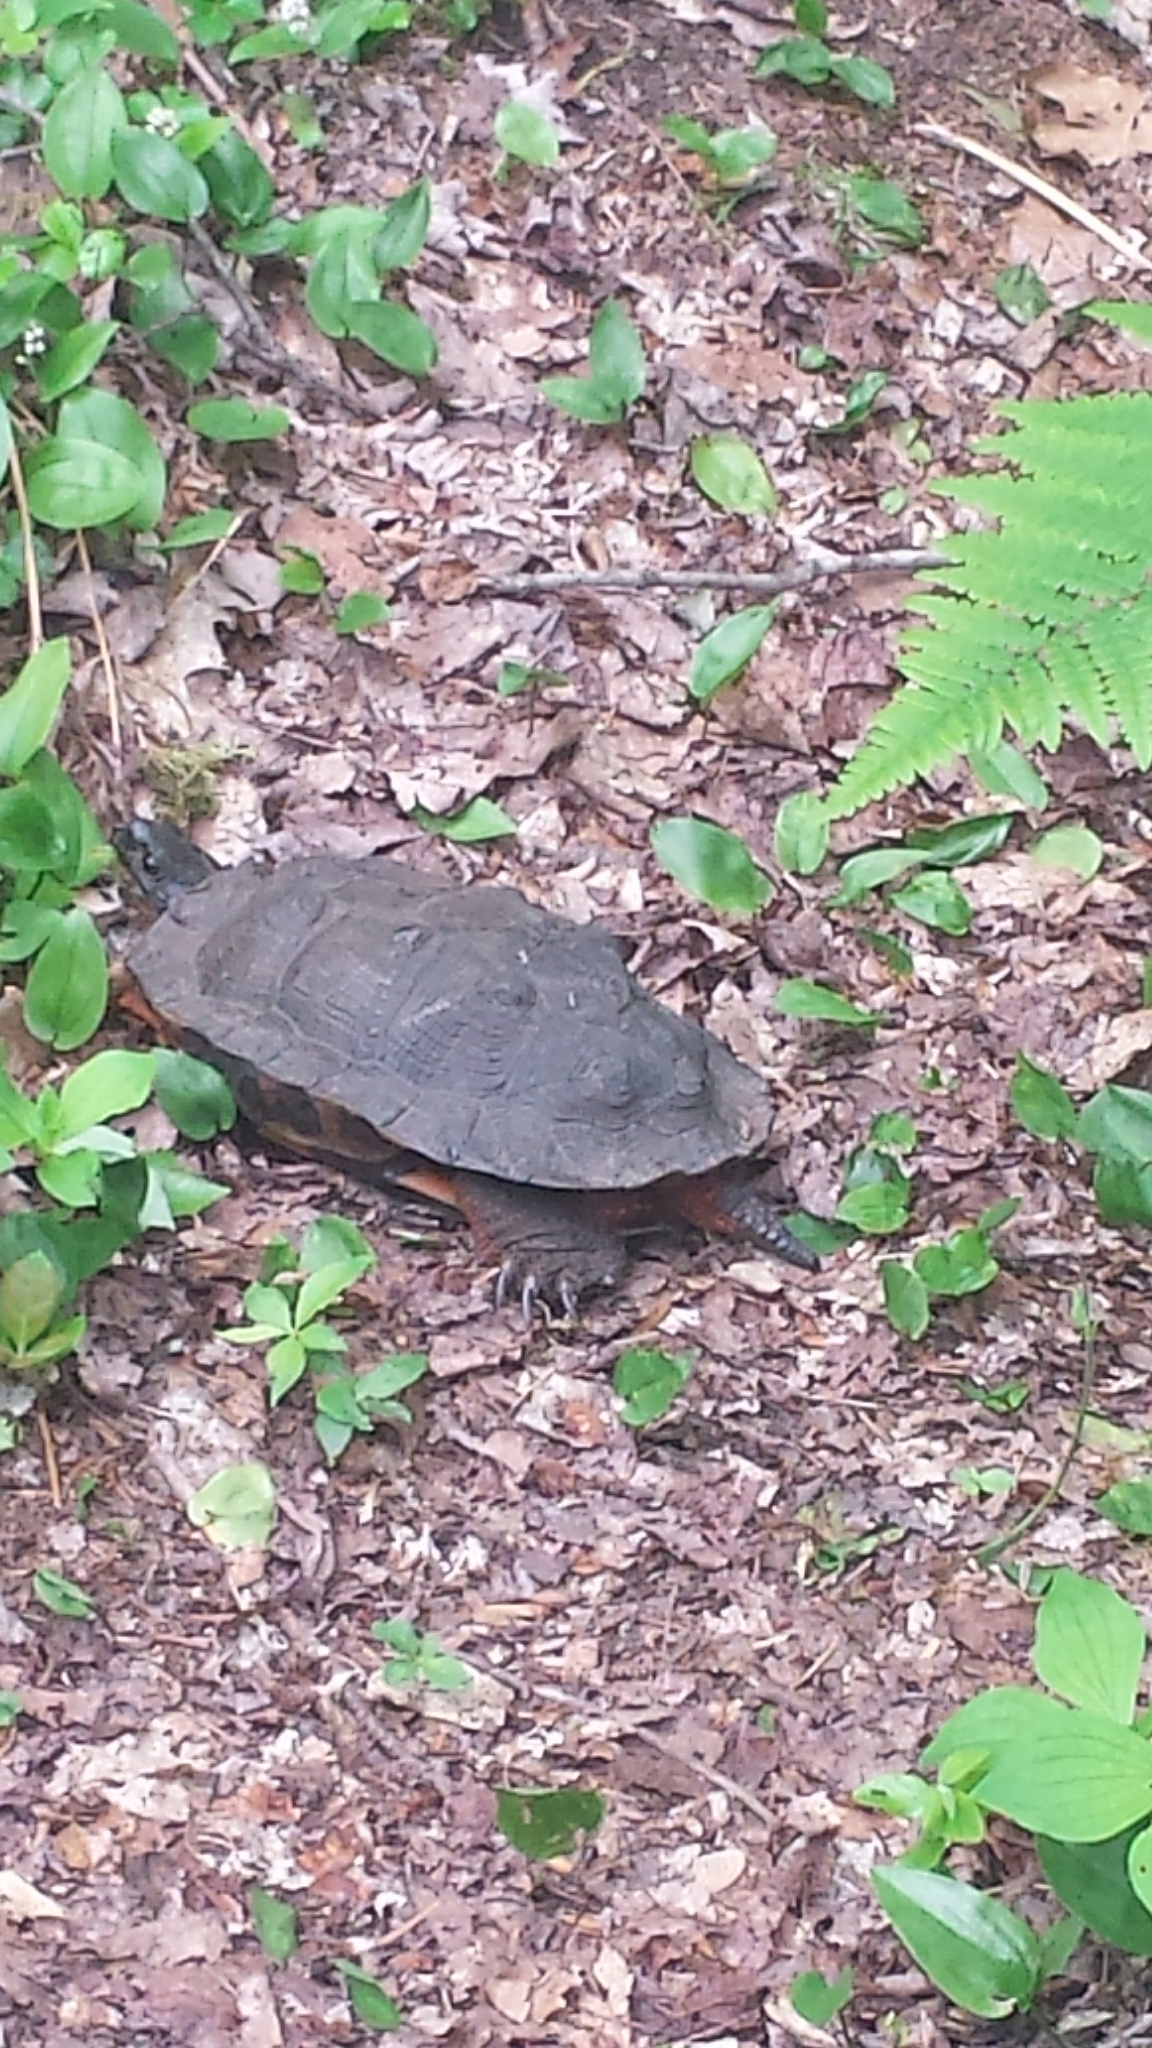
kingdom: Animalia
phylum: Chordata
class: Testudines
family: Emydidae
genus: Glyptemys
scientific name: Glyptemys insculpta
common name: Wood turtle
